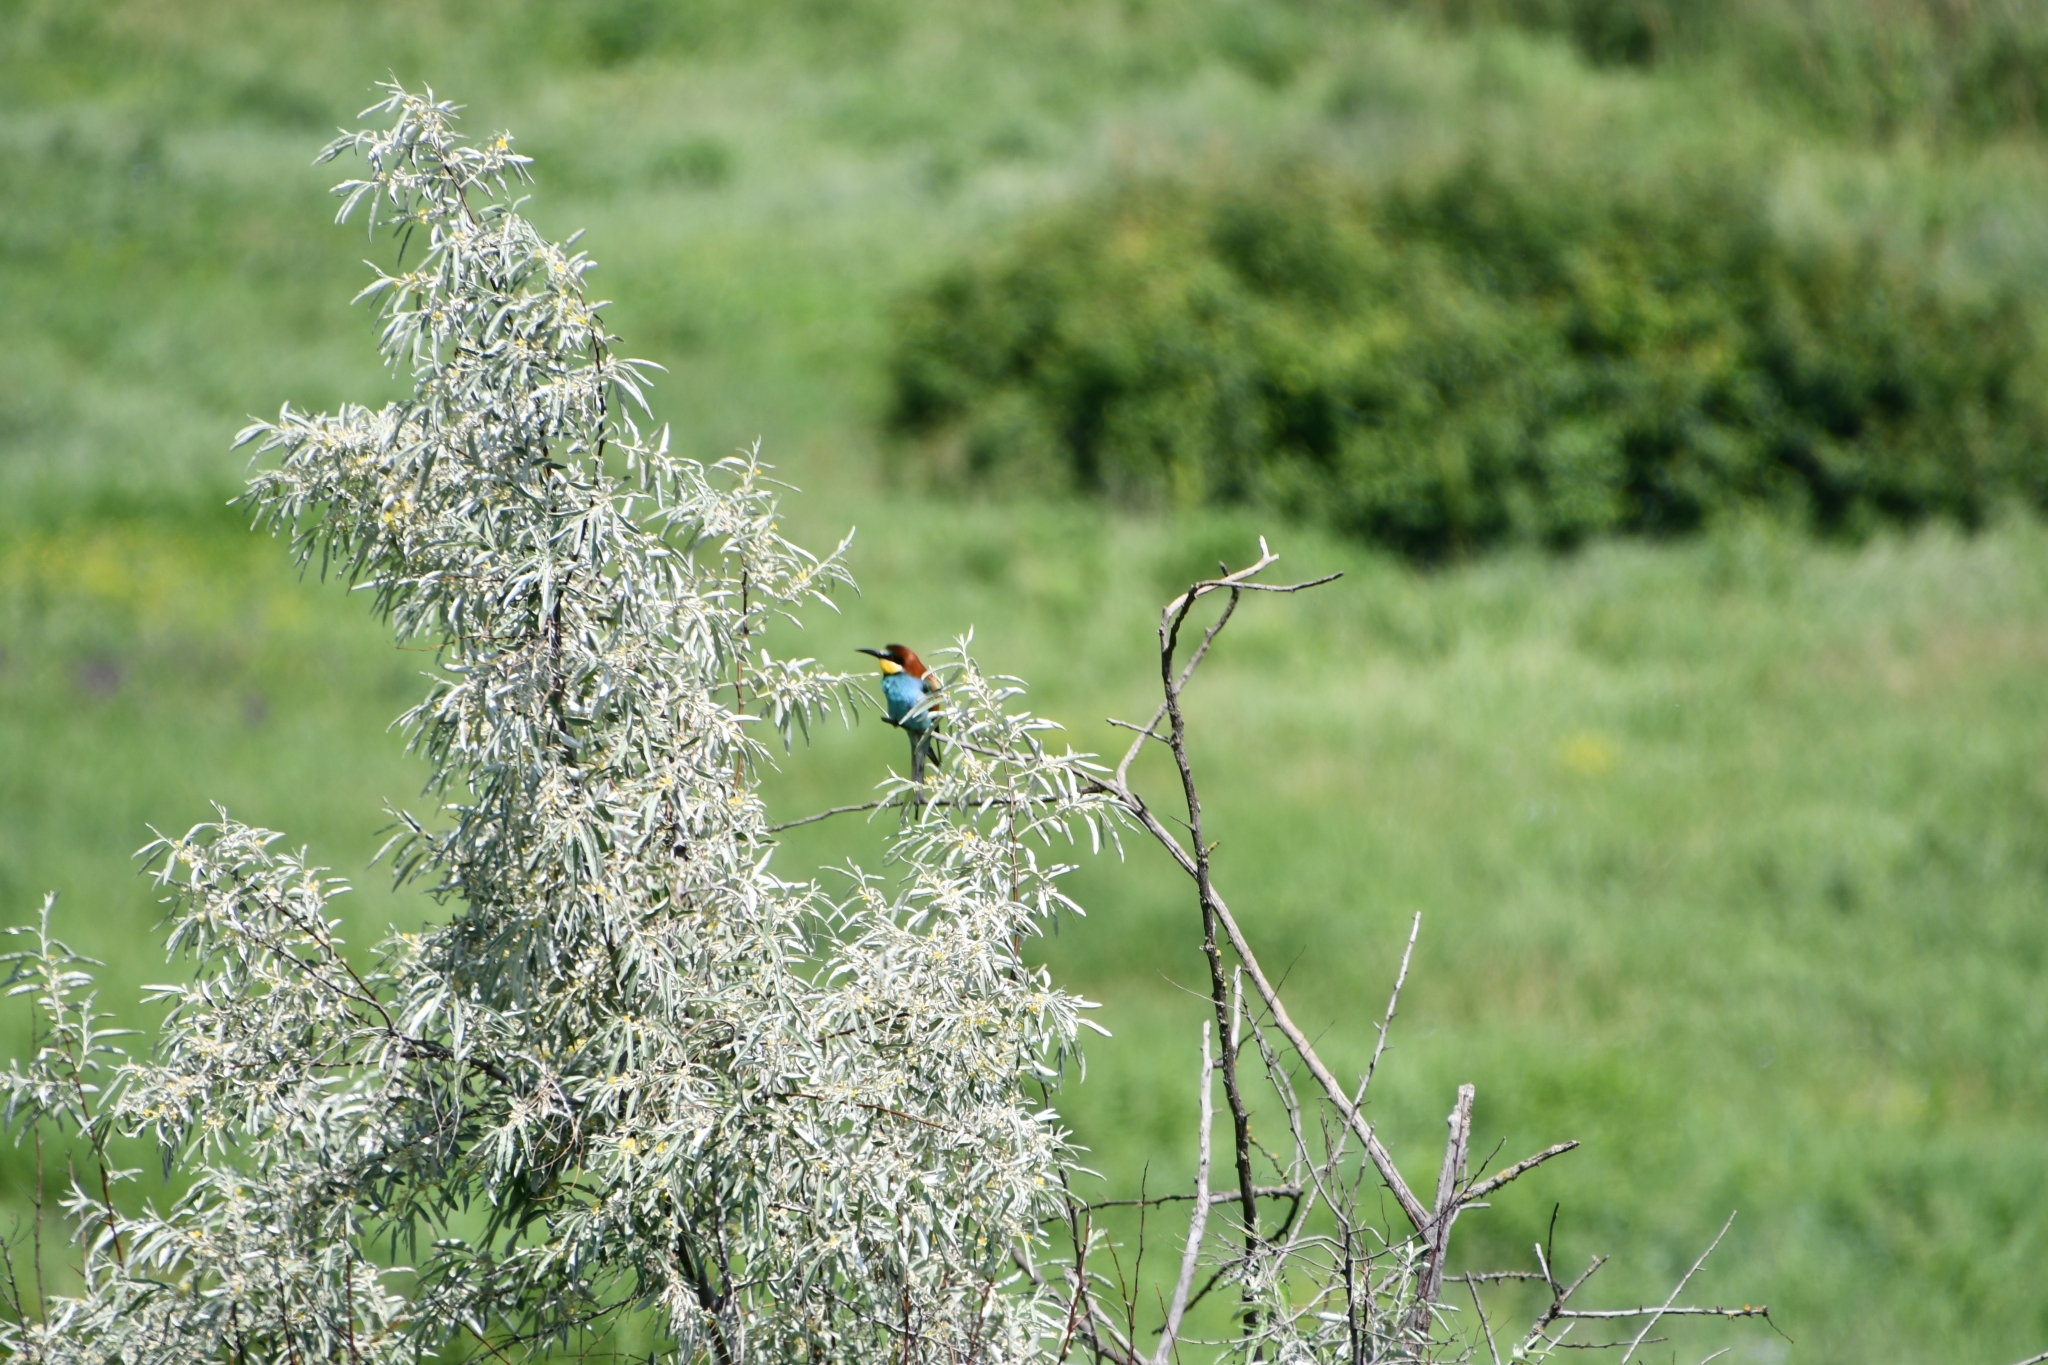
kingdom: Animalia
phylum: Chordata
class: Aves
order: Coraciiformes
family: Meropidae
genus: Merops
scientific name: Merops apiaster
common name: European bee-eater
